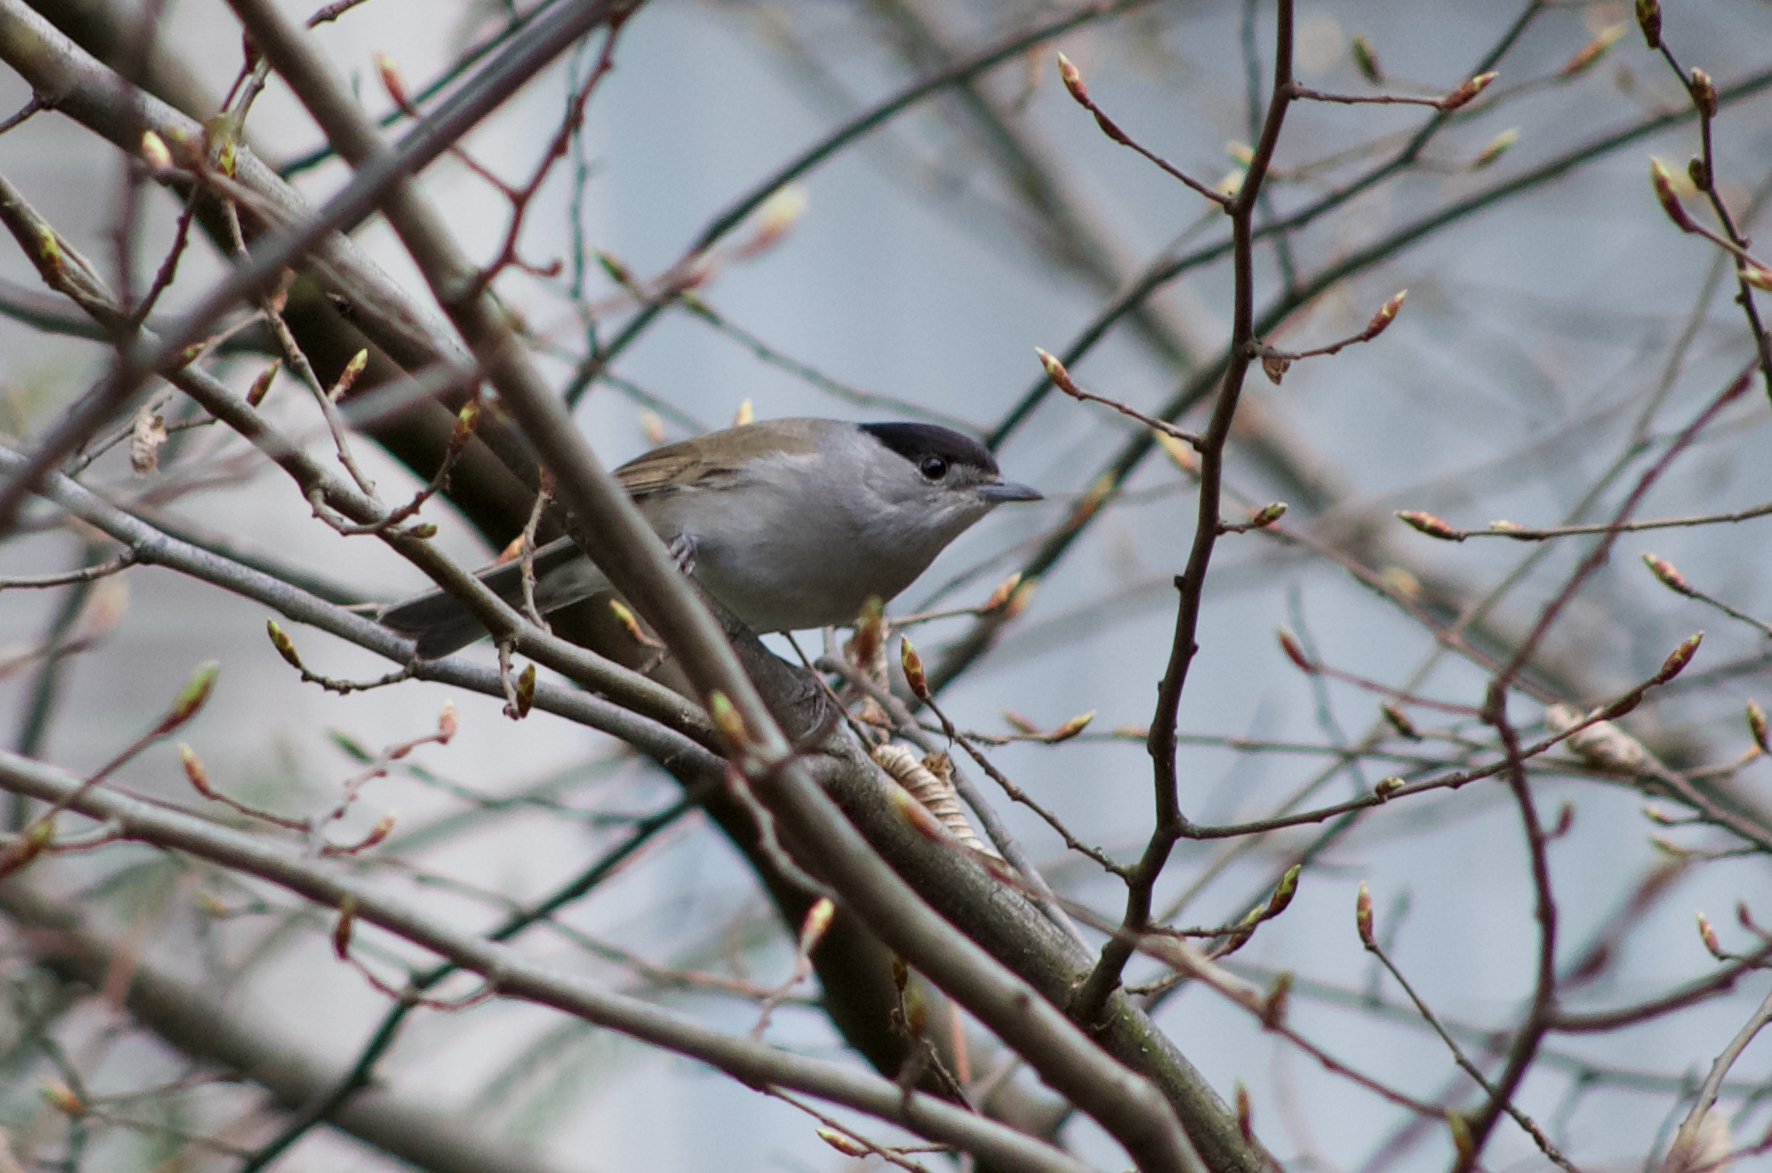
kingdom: Animalia
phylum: Chordata
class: Aves
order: Passeriformes
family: Sylviidae
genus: Sylvia
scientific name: Sylvia atricapilla
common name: Eurasian blackcap
